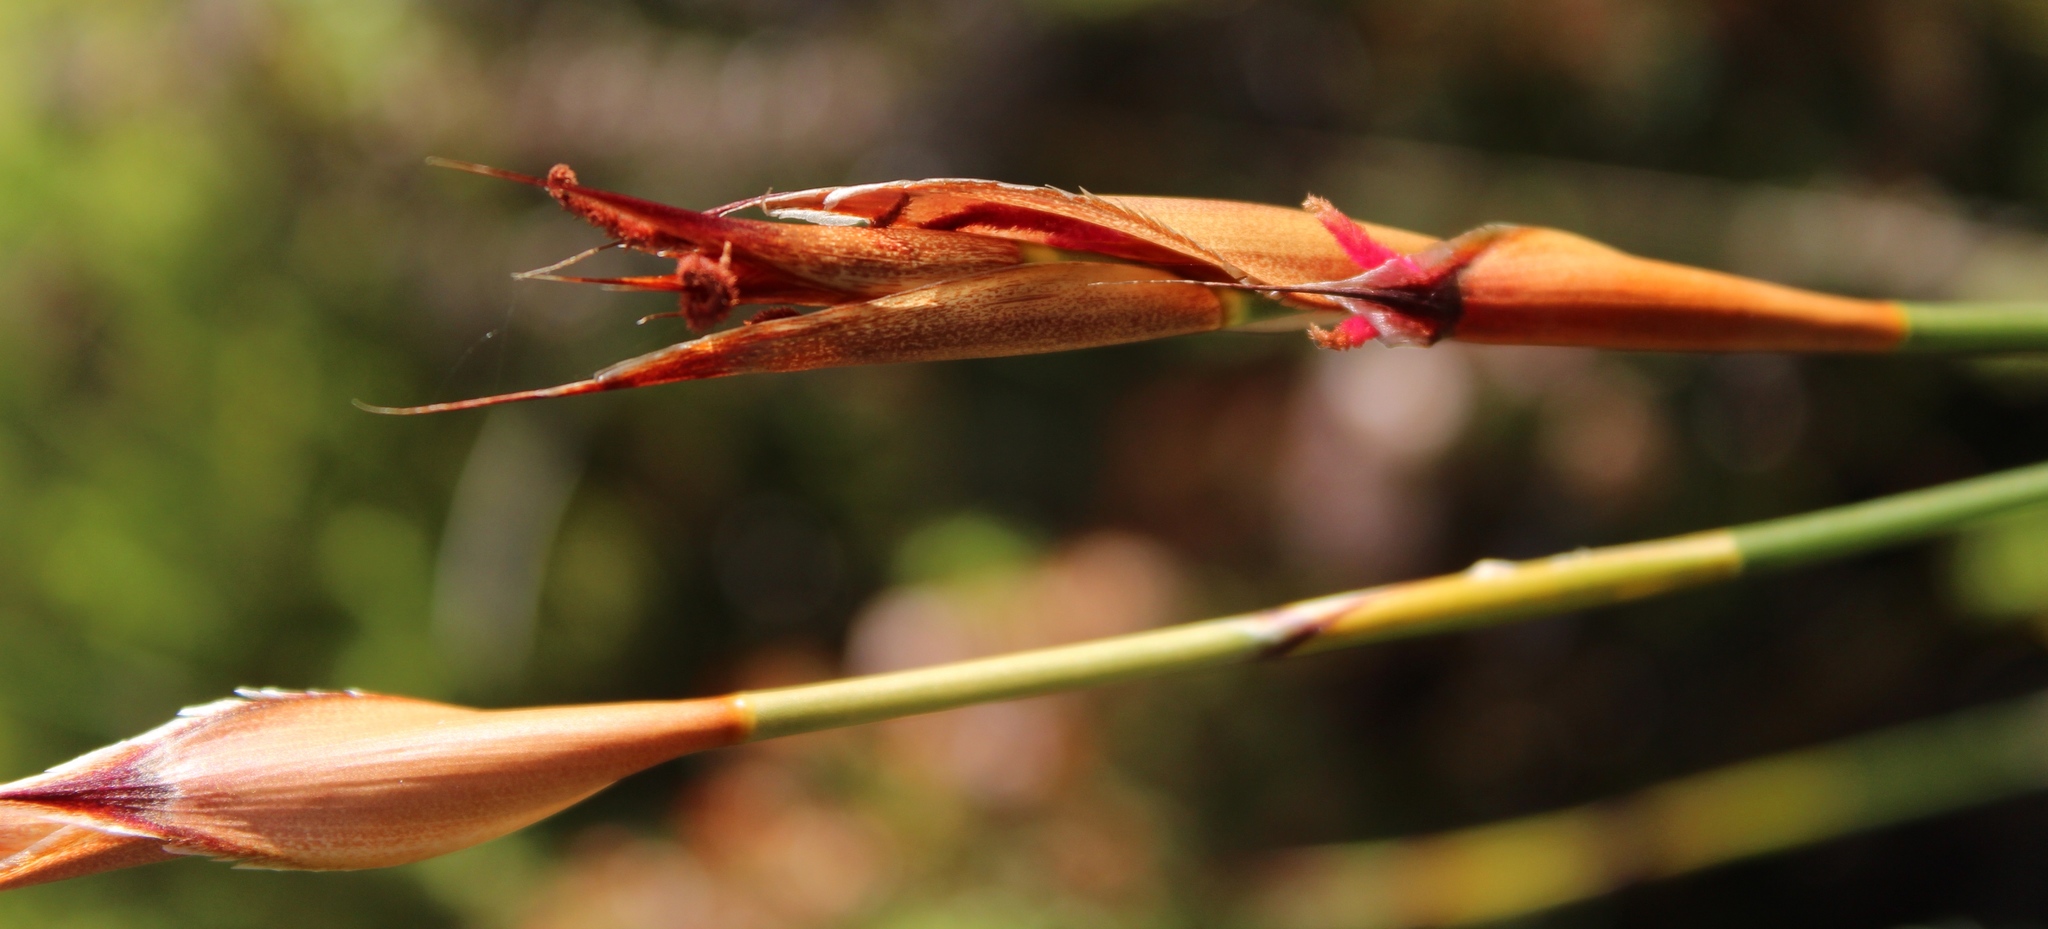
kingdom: Plantae
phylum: Tracheophyta
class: Liliopsida
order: Poales
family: Restionaceae
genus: Willdenowia
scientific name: Willdenowia glomerata
